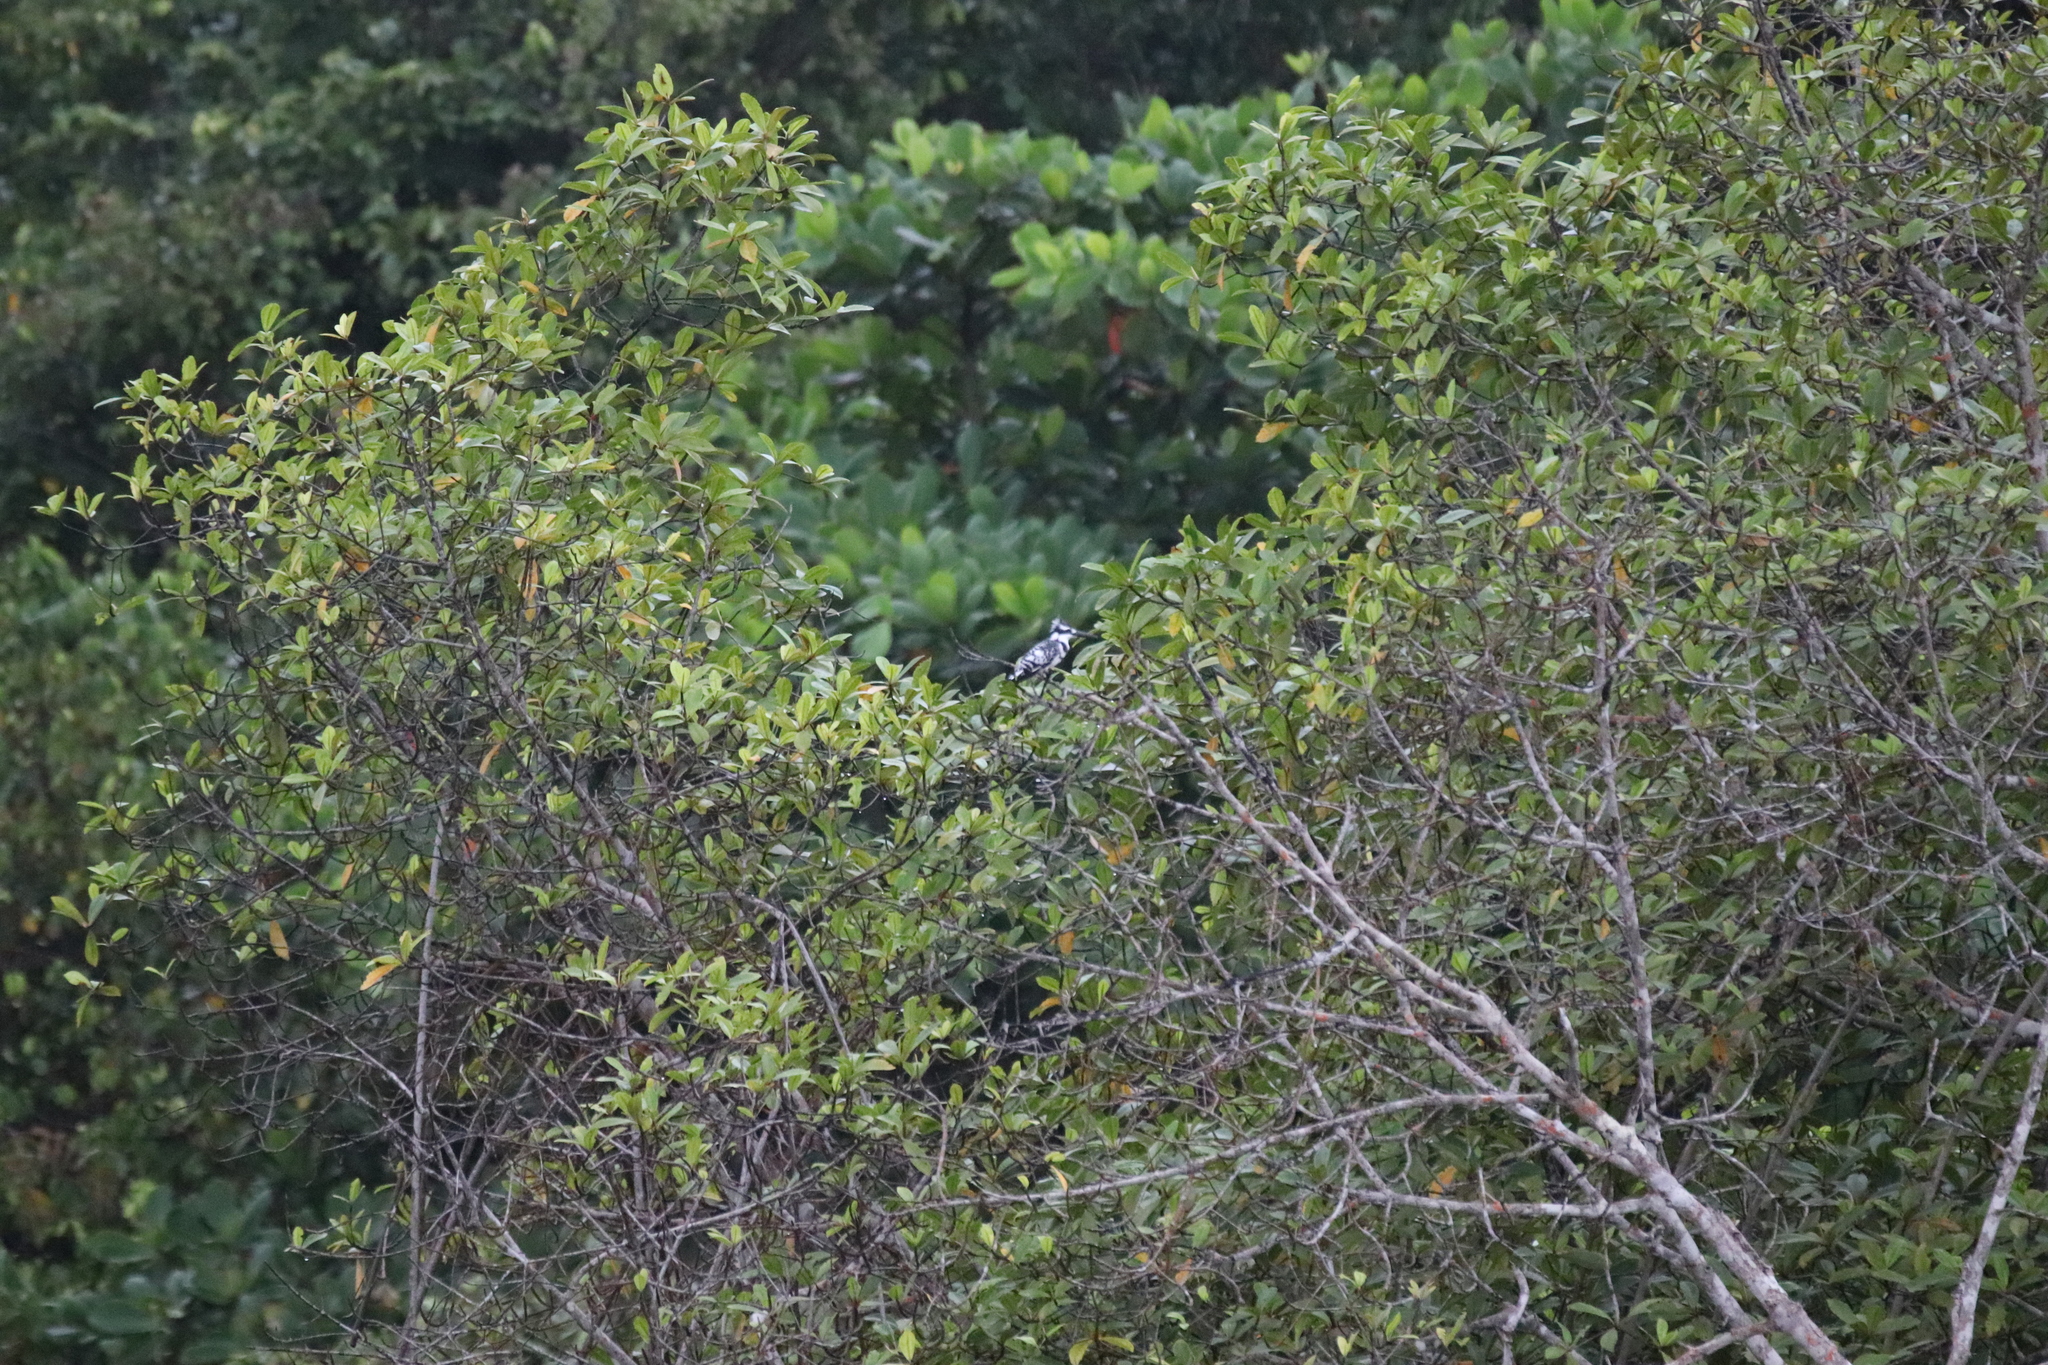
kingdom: Animalia
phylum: Chordata
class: Aves
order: Coraciiformes
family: Alcedinidae
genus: Ceryle
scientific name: Ceryle rudis
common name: Pied kingfisher
